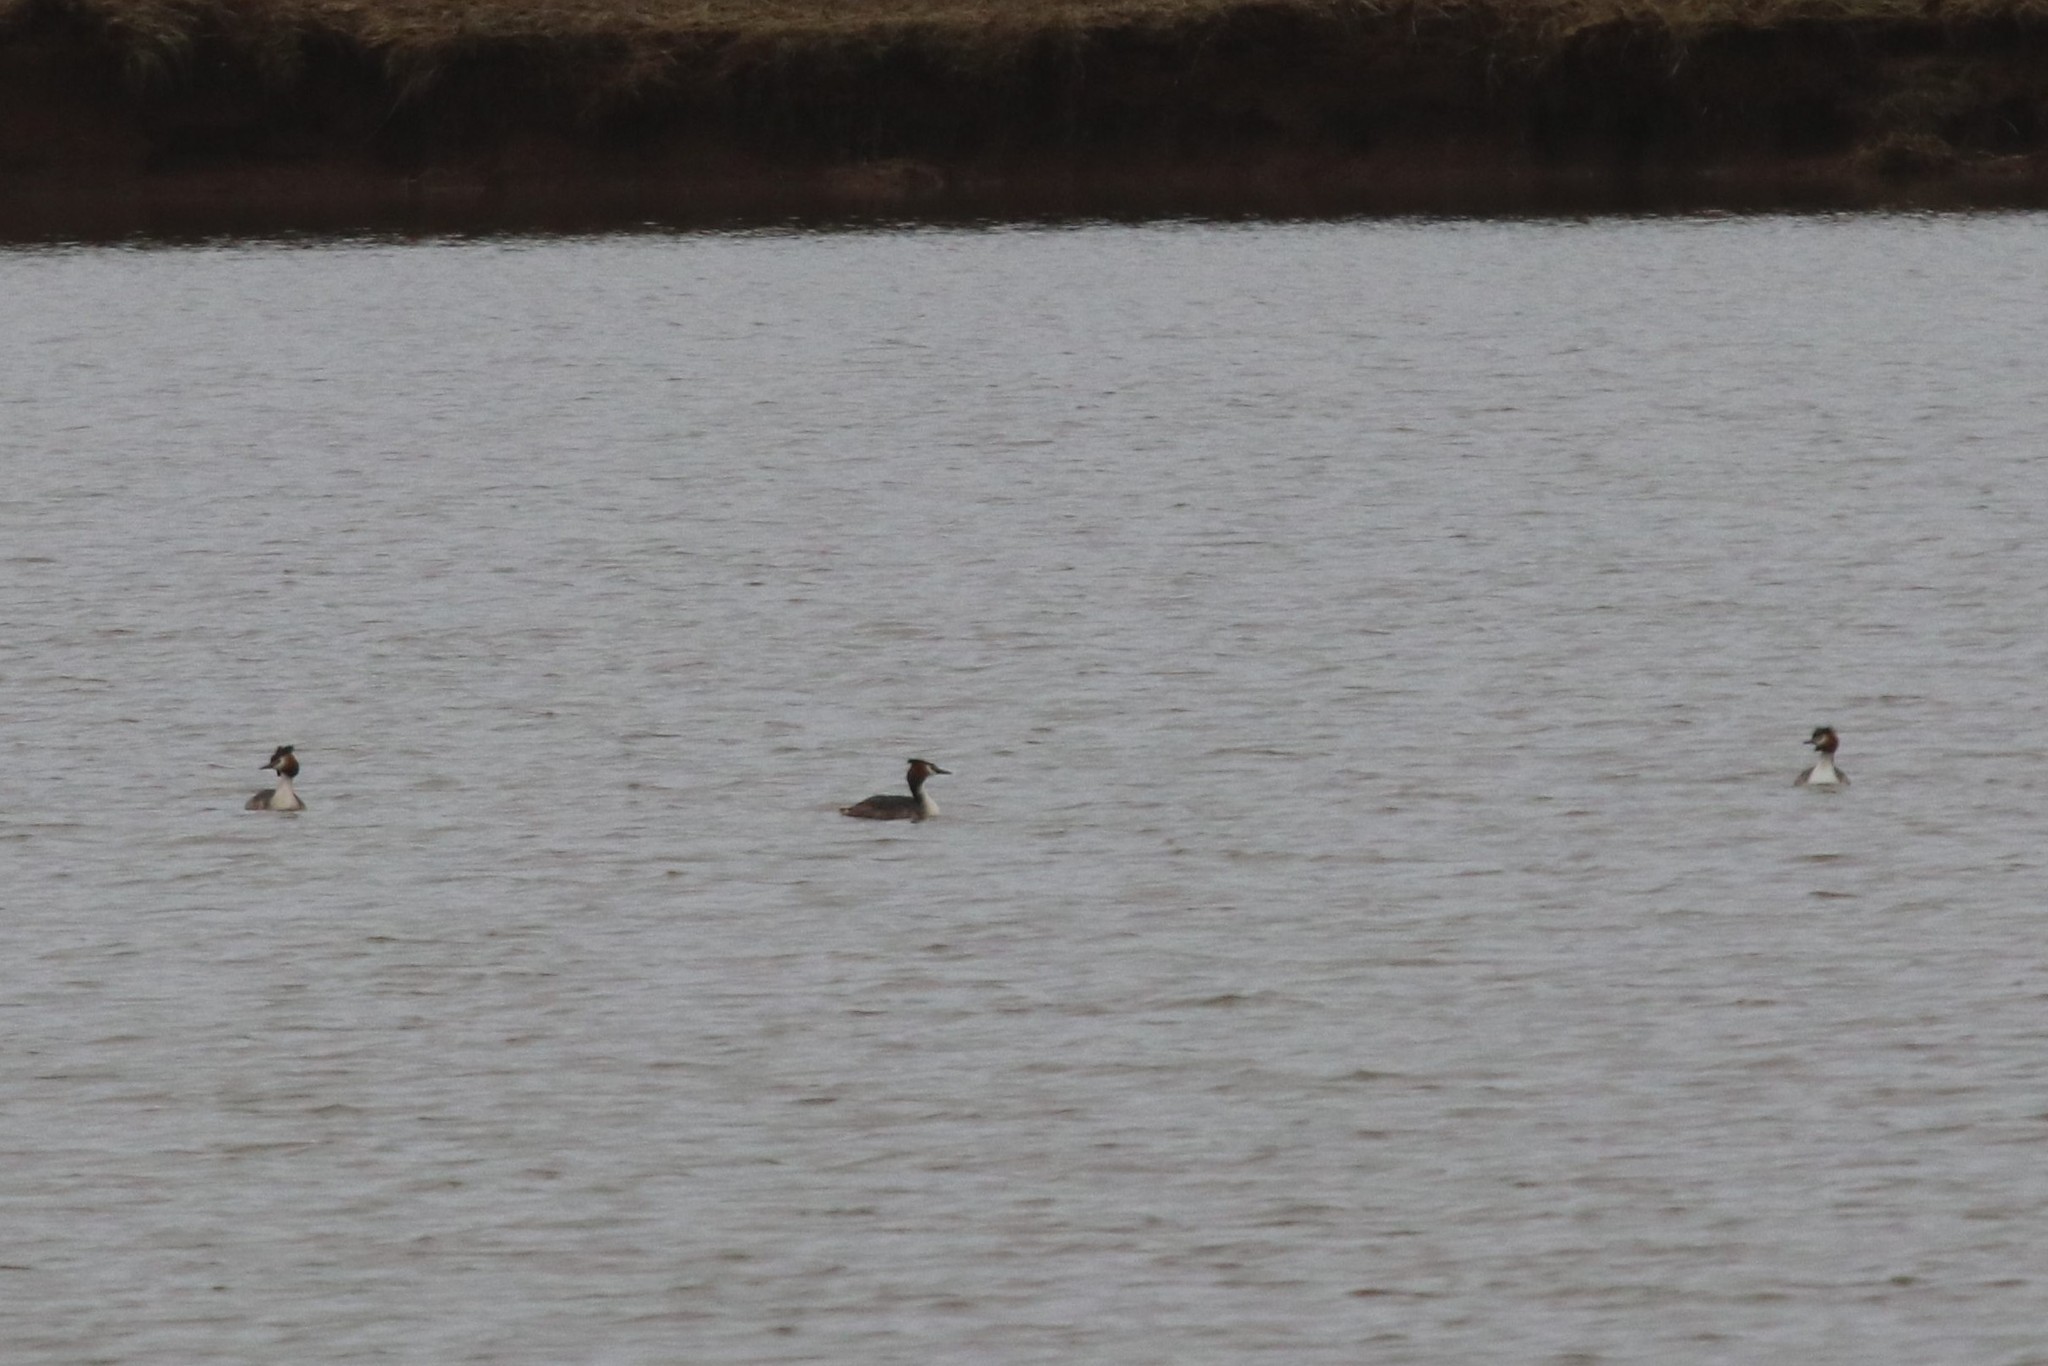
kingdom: Animalia
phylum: Chordata
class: Aves
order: Podicipediformes
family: Podicipedidae
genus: Podiceps
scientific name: Podiceps cristatus
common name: Great crested grebe
